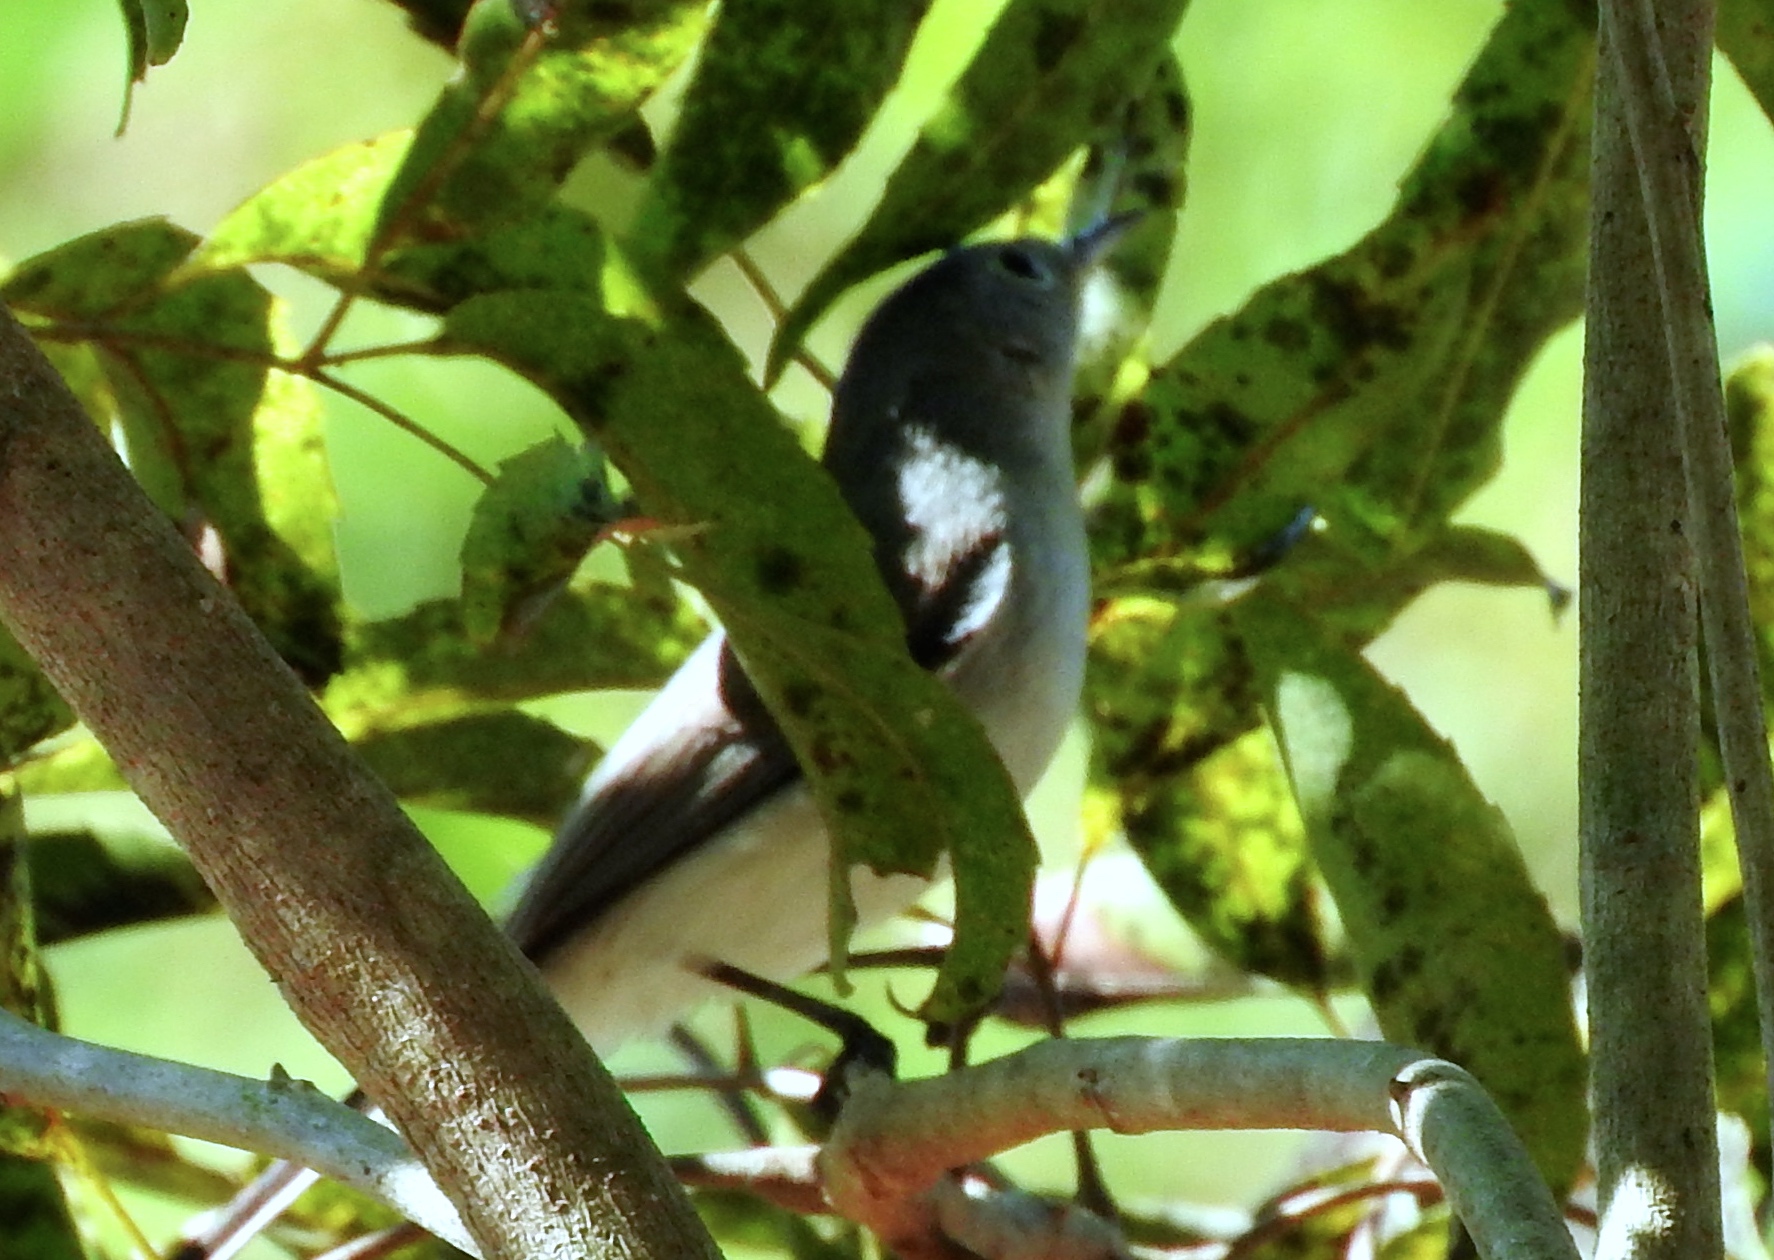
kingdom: Animalia
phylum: Chordata
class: Aves
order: Passeriformes
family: Polioptilidae
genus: Polioptila
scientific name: Polioptila caerulea
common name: Blue-gray gnatcatcher
